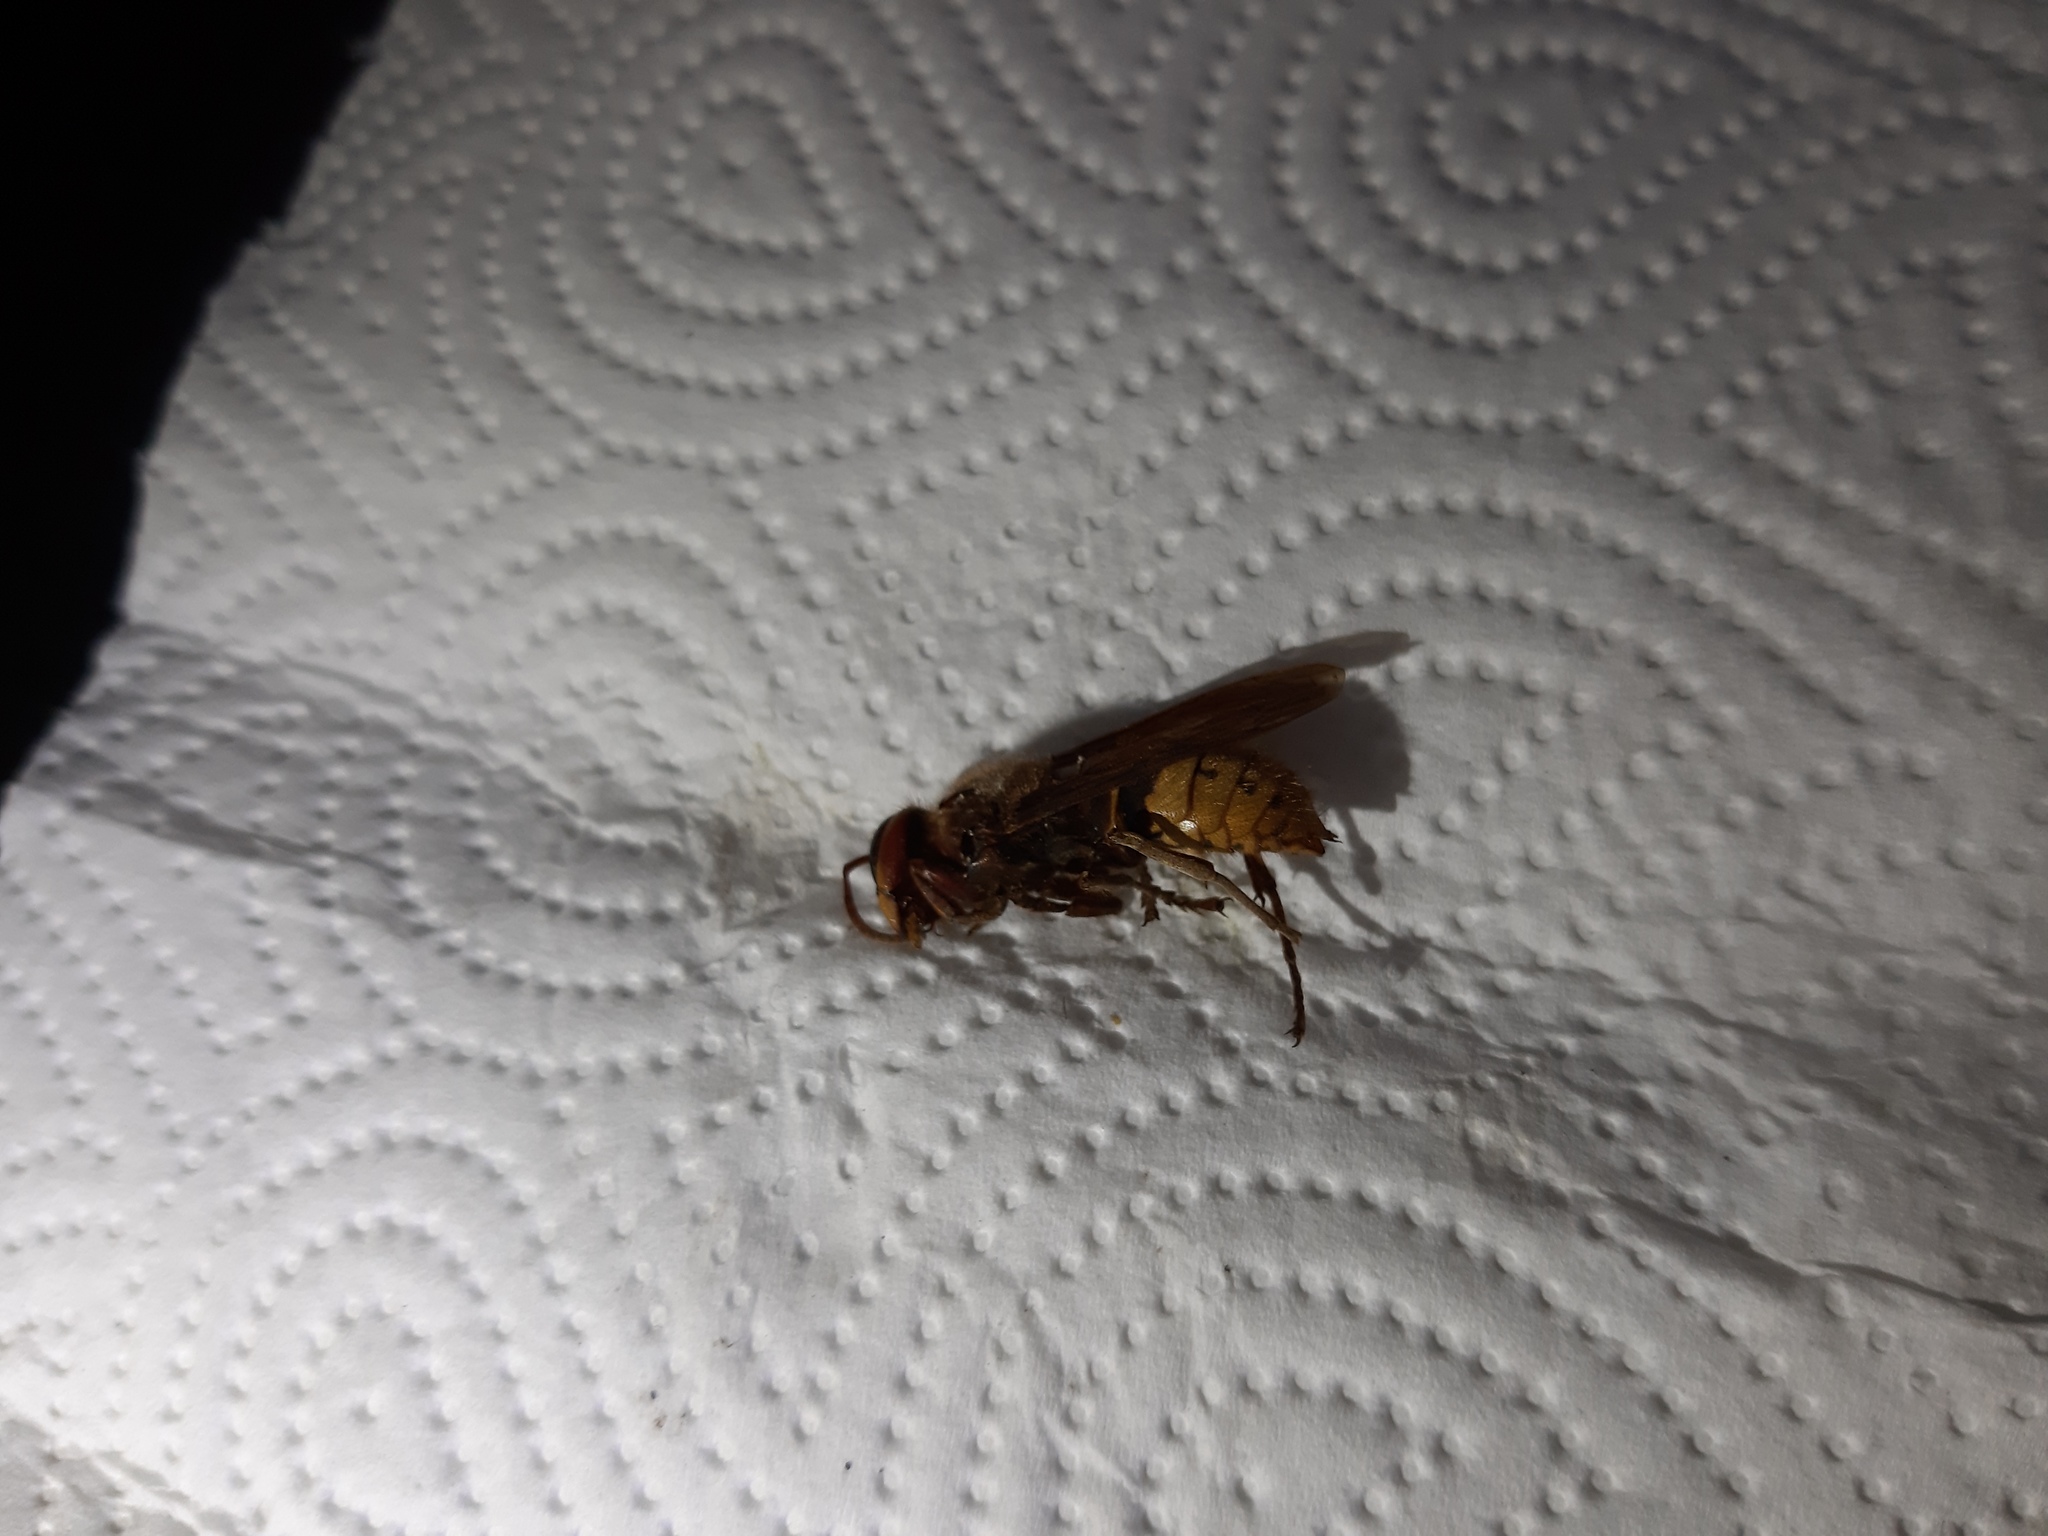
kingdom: Animalia
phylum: Arthropoda
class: Insecta
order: Hymenoptera
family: Vespidae
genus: Vespa
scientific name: Vespa crabro
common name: Hornet
